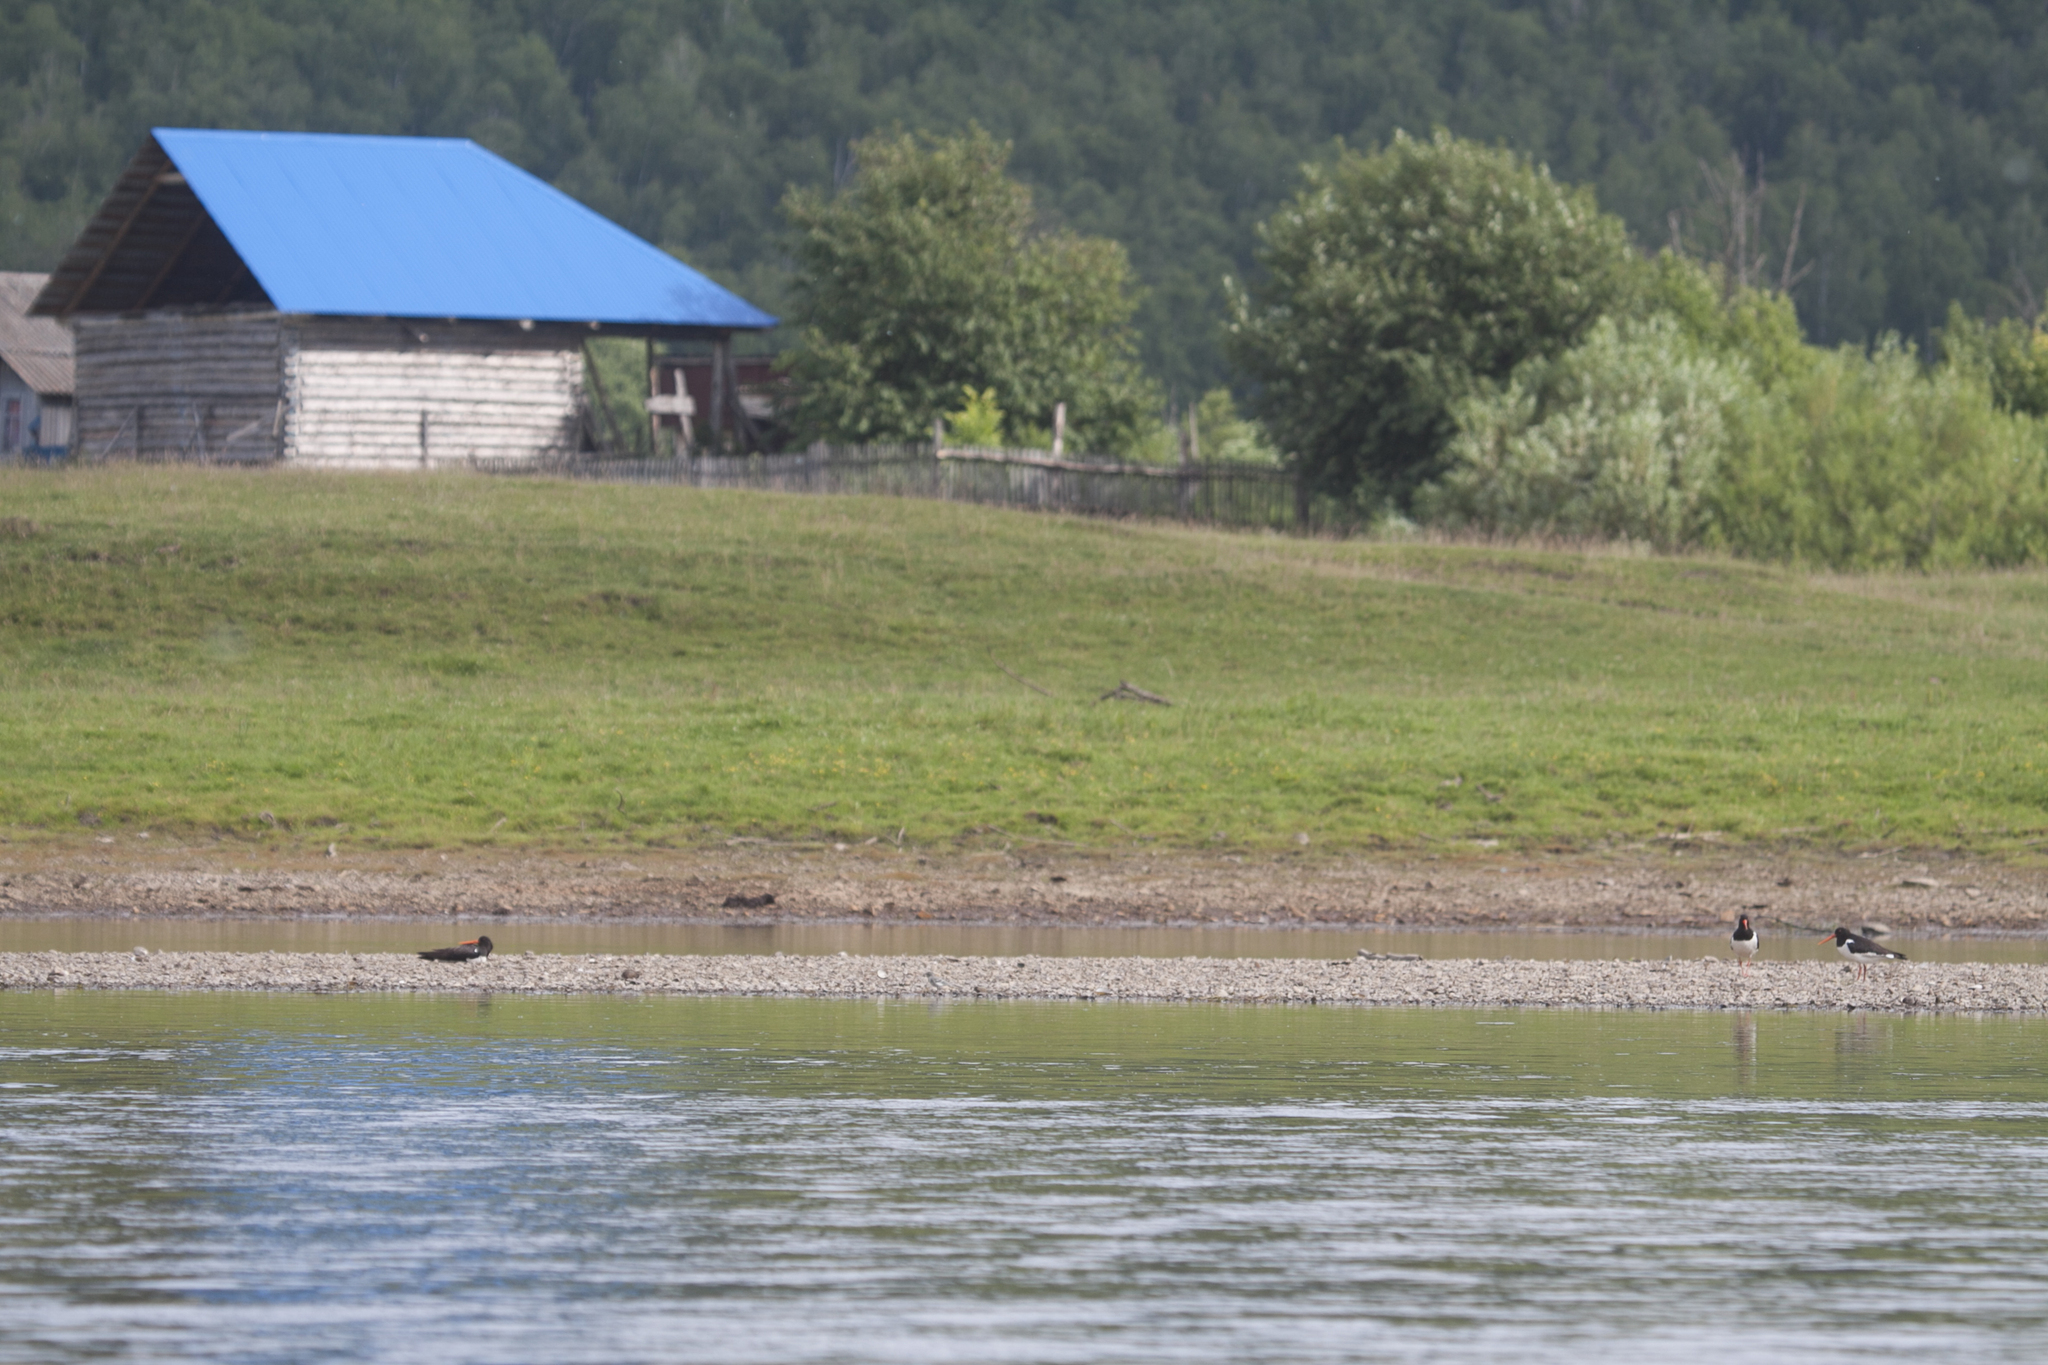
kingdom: Animalia
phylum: Chordata
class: Aves
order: Charadriiformes
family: Haematopodidae
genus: Haematopus
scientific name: Haematopus ostralegus
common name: Eurasian oystercatcher
